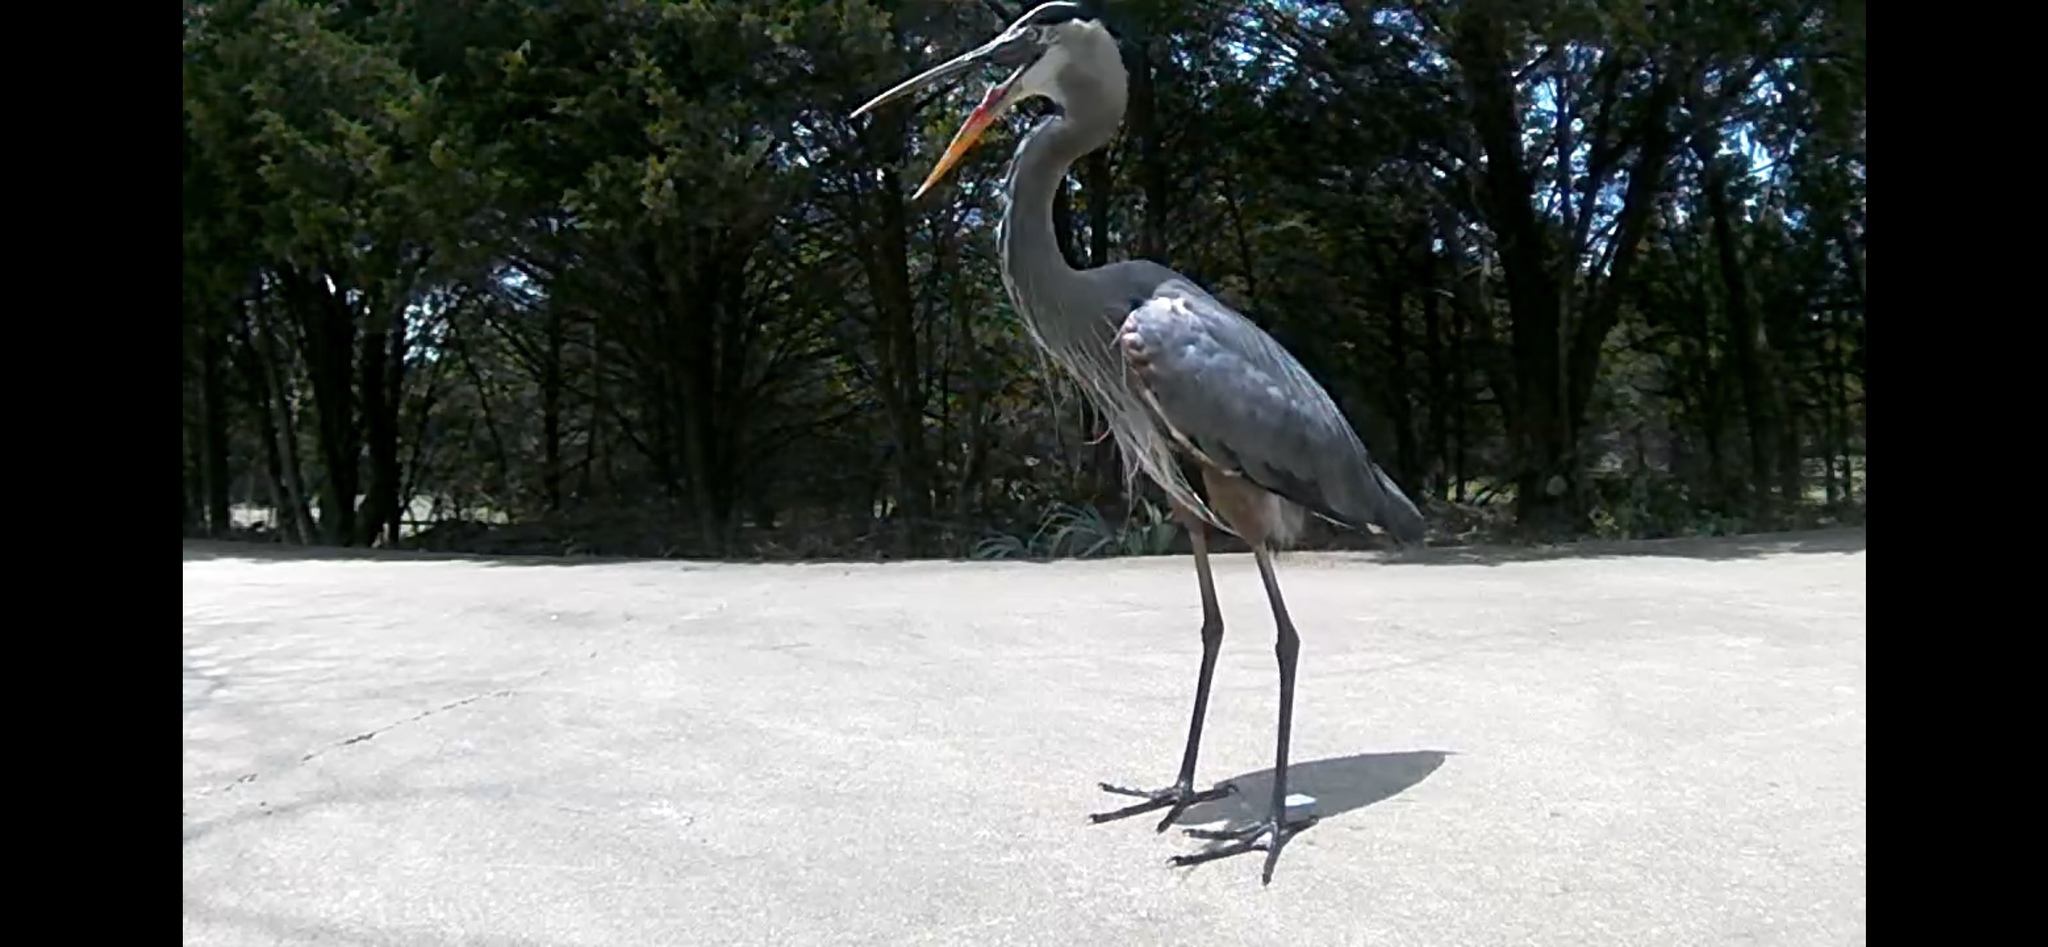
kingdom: Animalia
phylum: Chordata
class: Aves
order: Pelecaniformes
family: Ardeidae
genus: Ardea
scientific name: Ardea herodias
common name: Great blue heron
